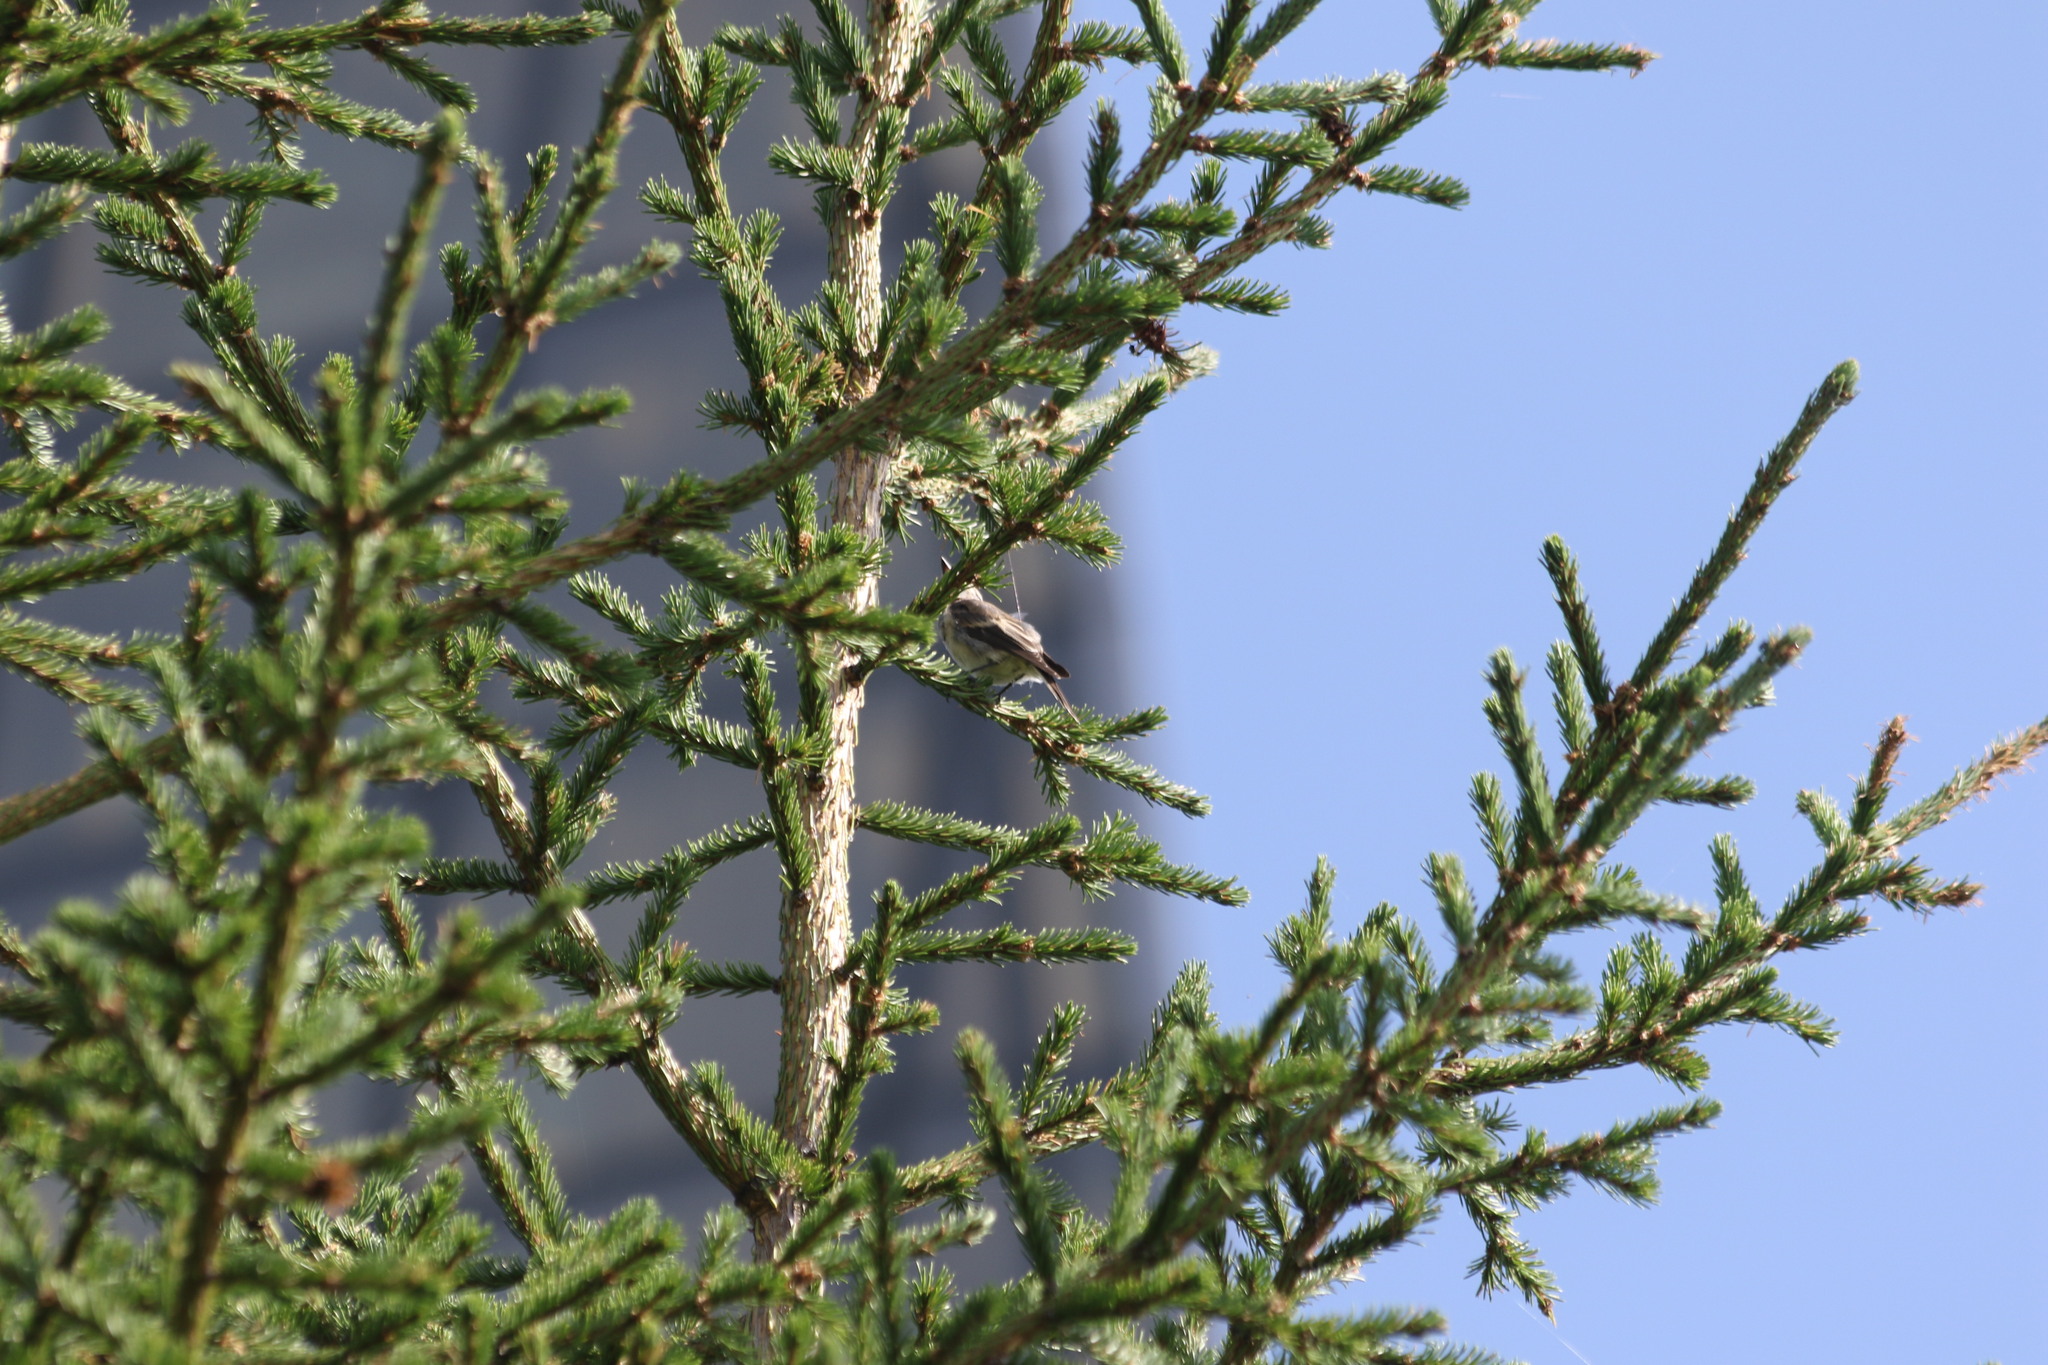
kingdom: Animalia
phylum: Chordata
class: Aves
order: Passeriformes
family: Muscicapidae
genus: Muscicapa
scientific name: Muscicapa striata
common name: Spotted flycatcher
